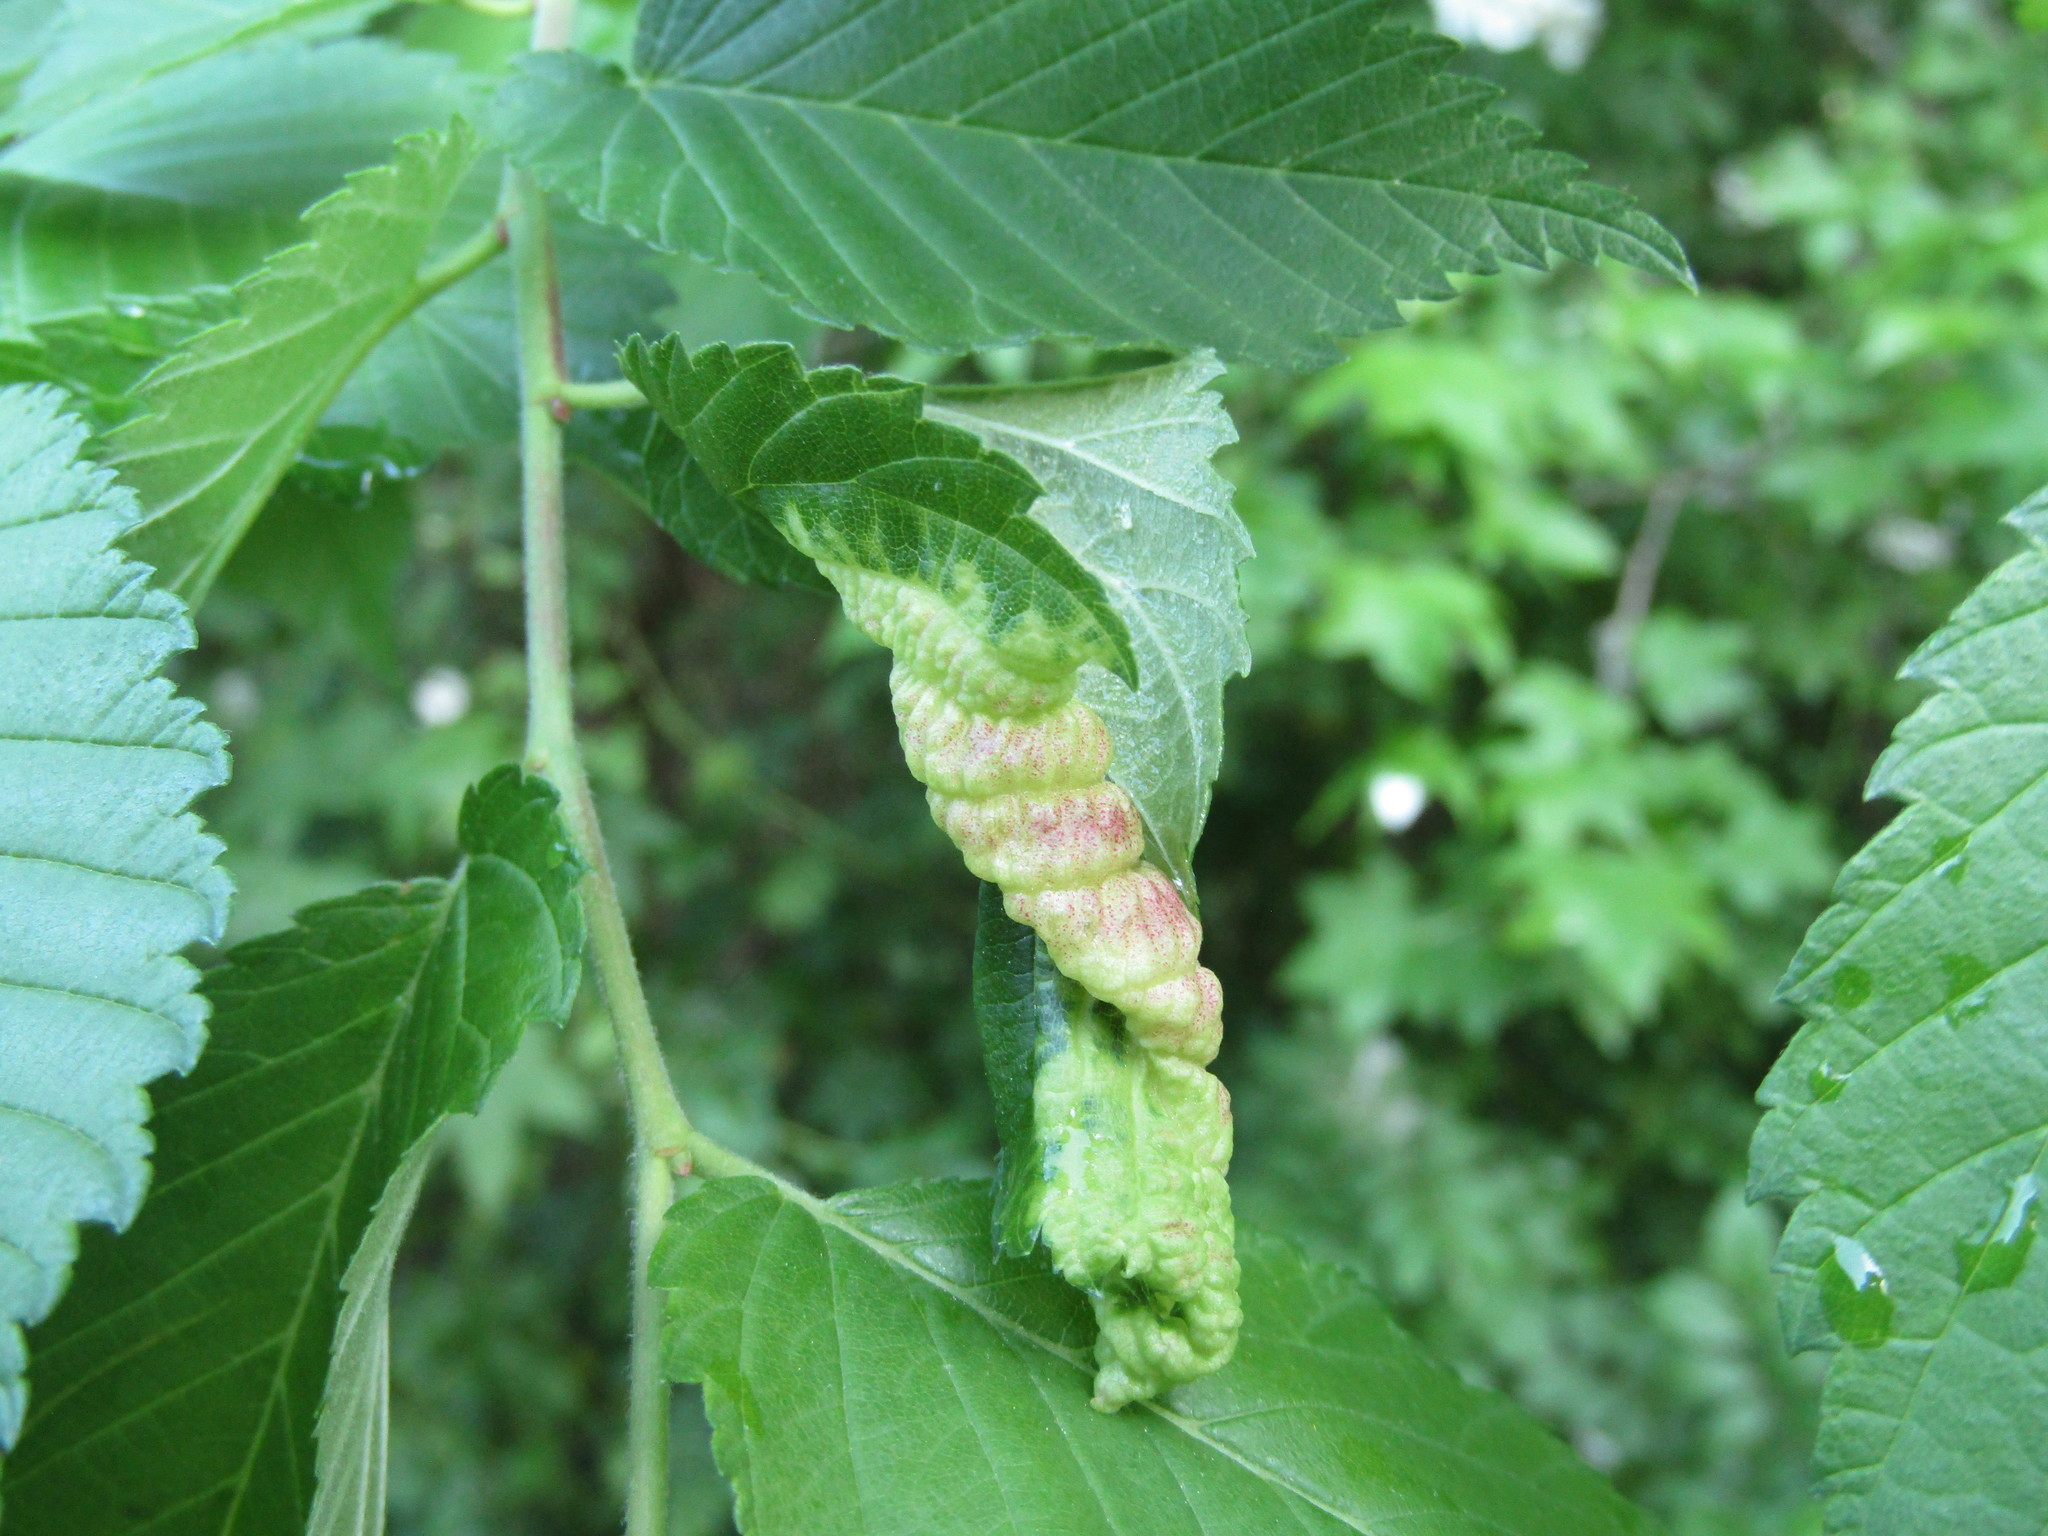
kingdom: Animalia
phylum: Arthropoda
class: Insecta
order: Hemiptera
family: Aphididae
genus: Eriosoma
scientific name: Eriosoma americanum
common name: Woolly elm aphid
